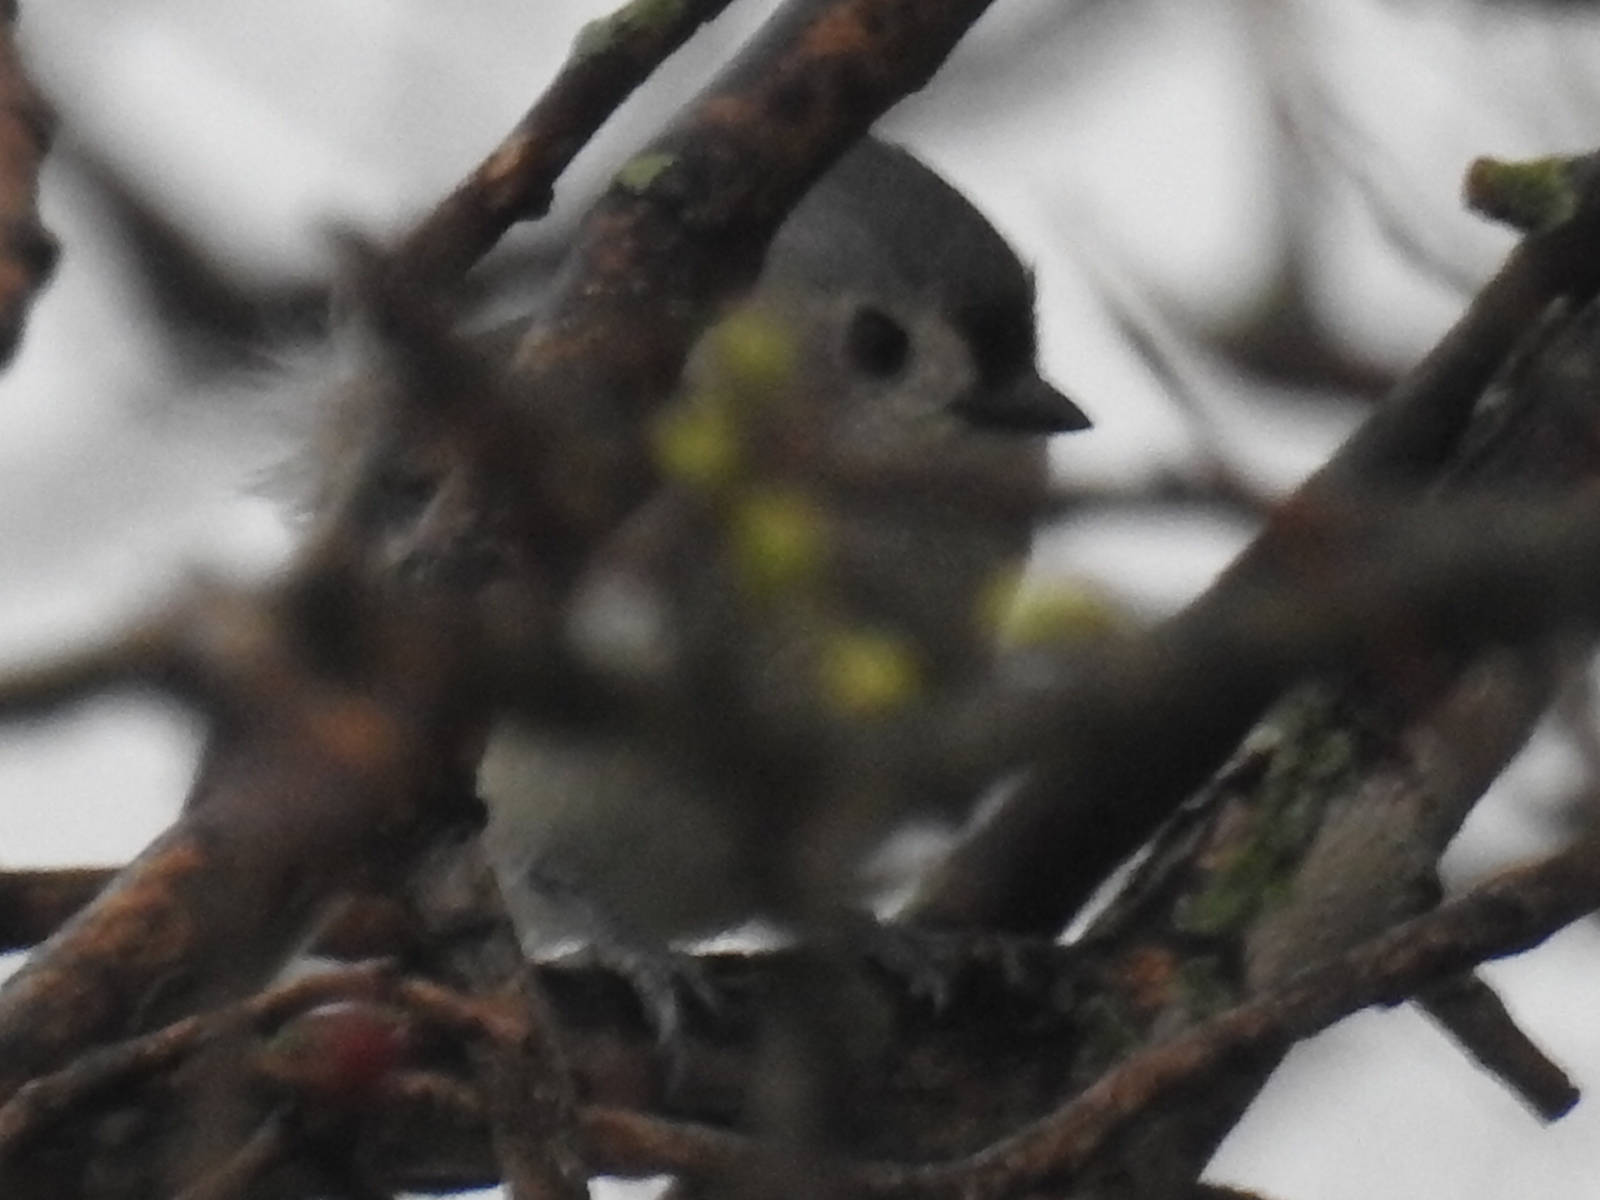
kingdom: Animalia
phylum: Chordata
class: Aves
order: Passeriformes
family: Paridae
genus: Baeolophus
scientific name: Baeolophus bicolor
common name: Tufted titmouse
